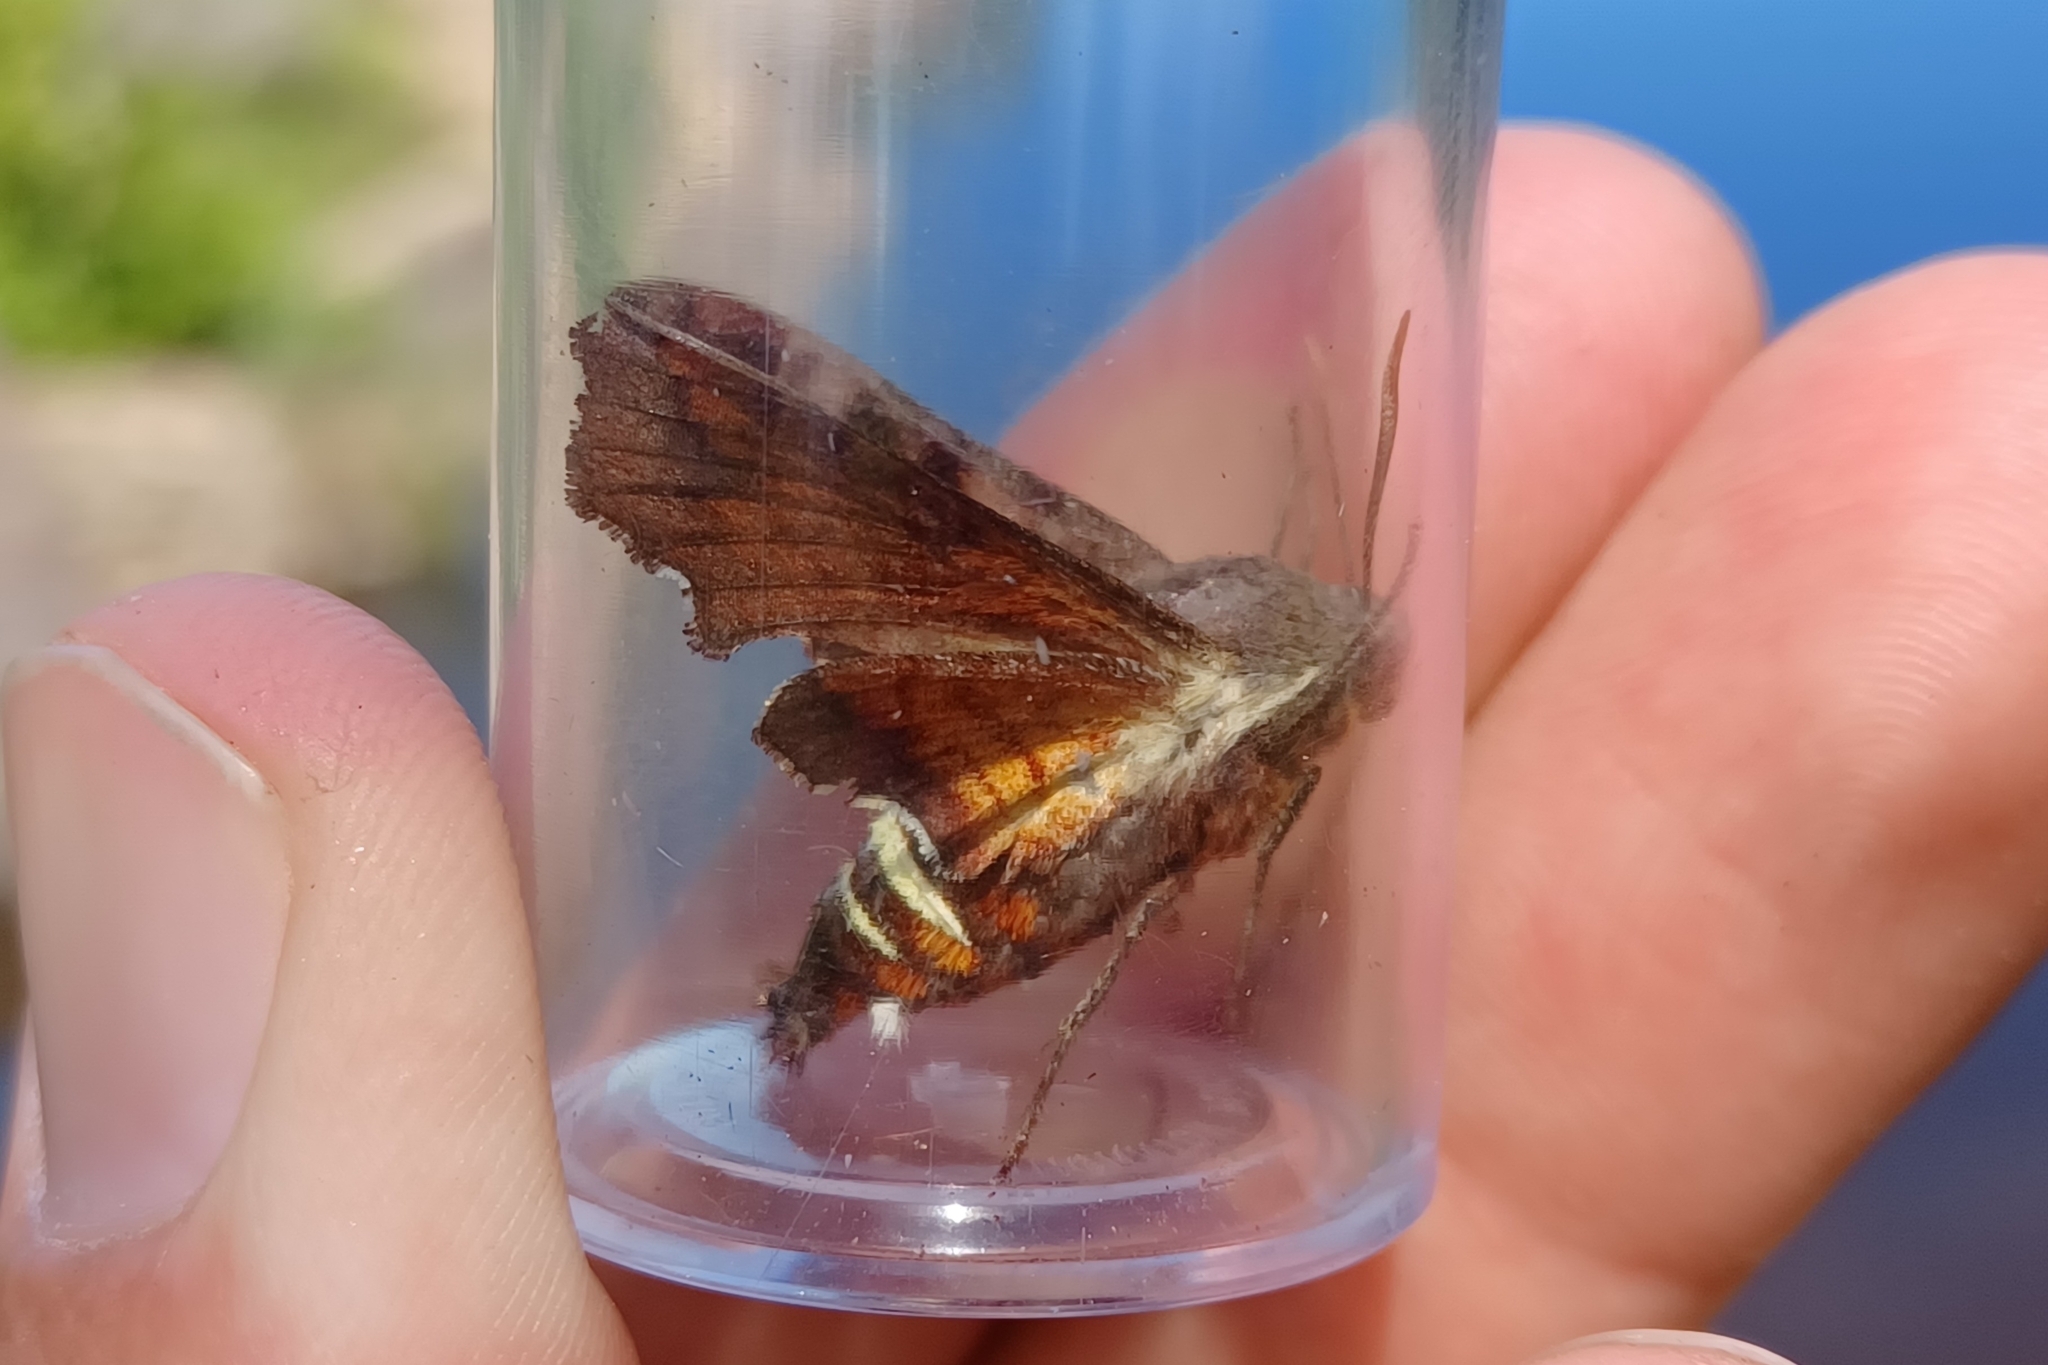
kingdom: Animalia
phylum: Arthropoda
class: Insecta
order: Lepidoptera
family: Sphingidae
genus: Amphion
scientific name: Amphion floridensis
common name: Nessus sphinx
